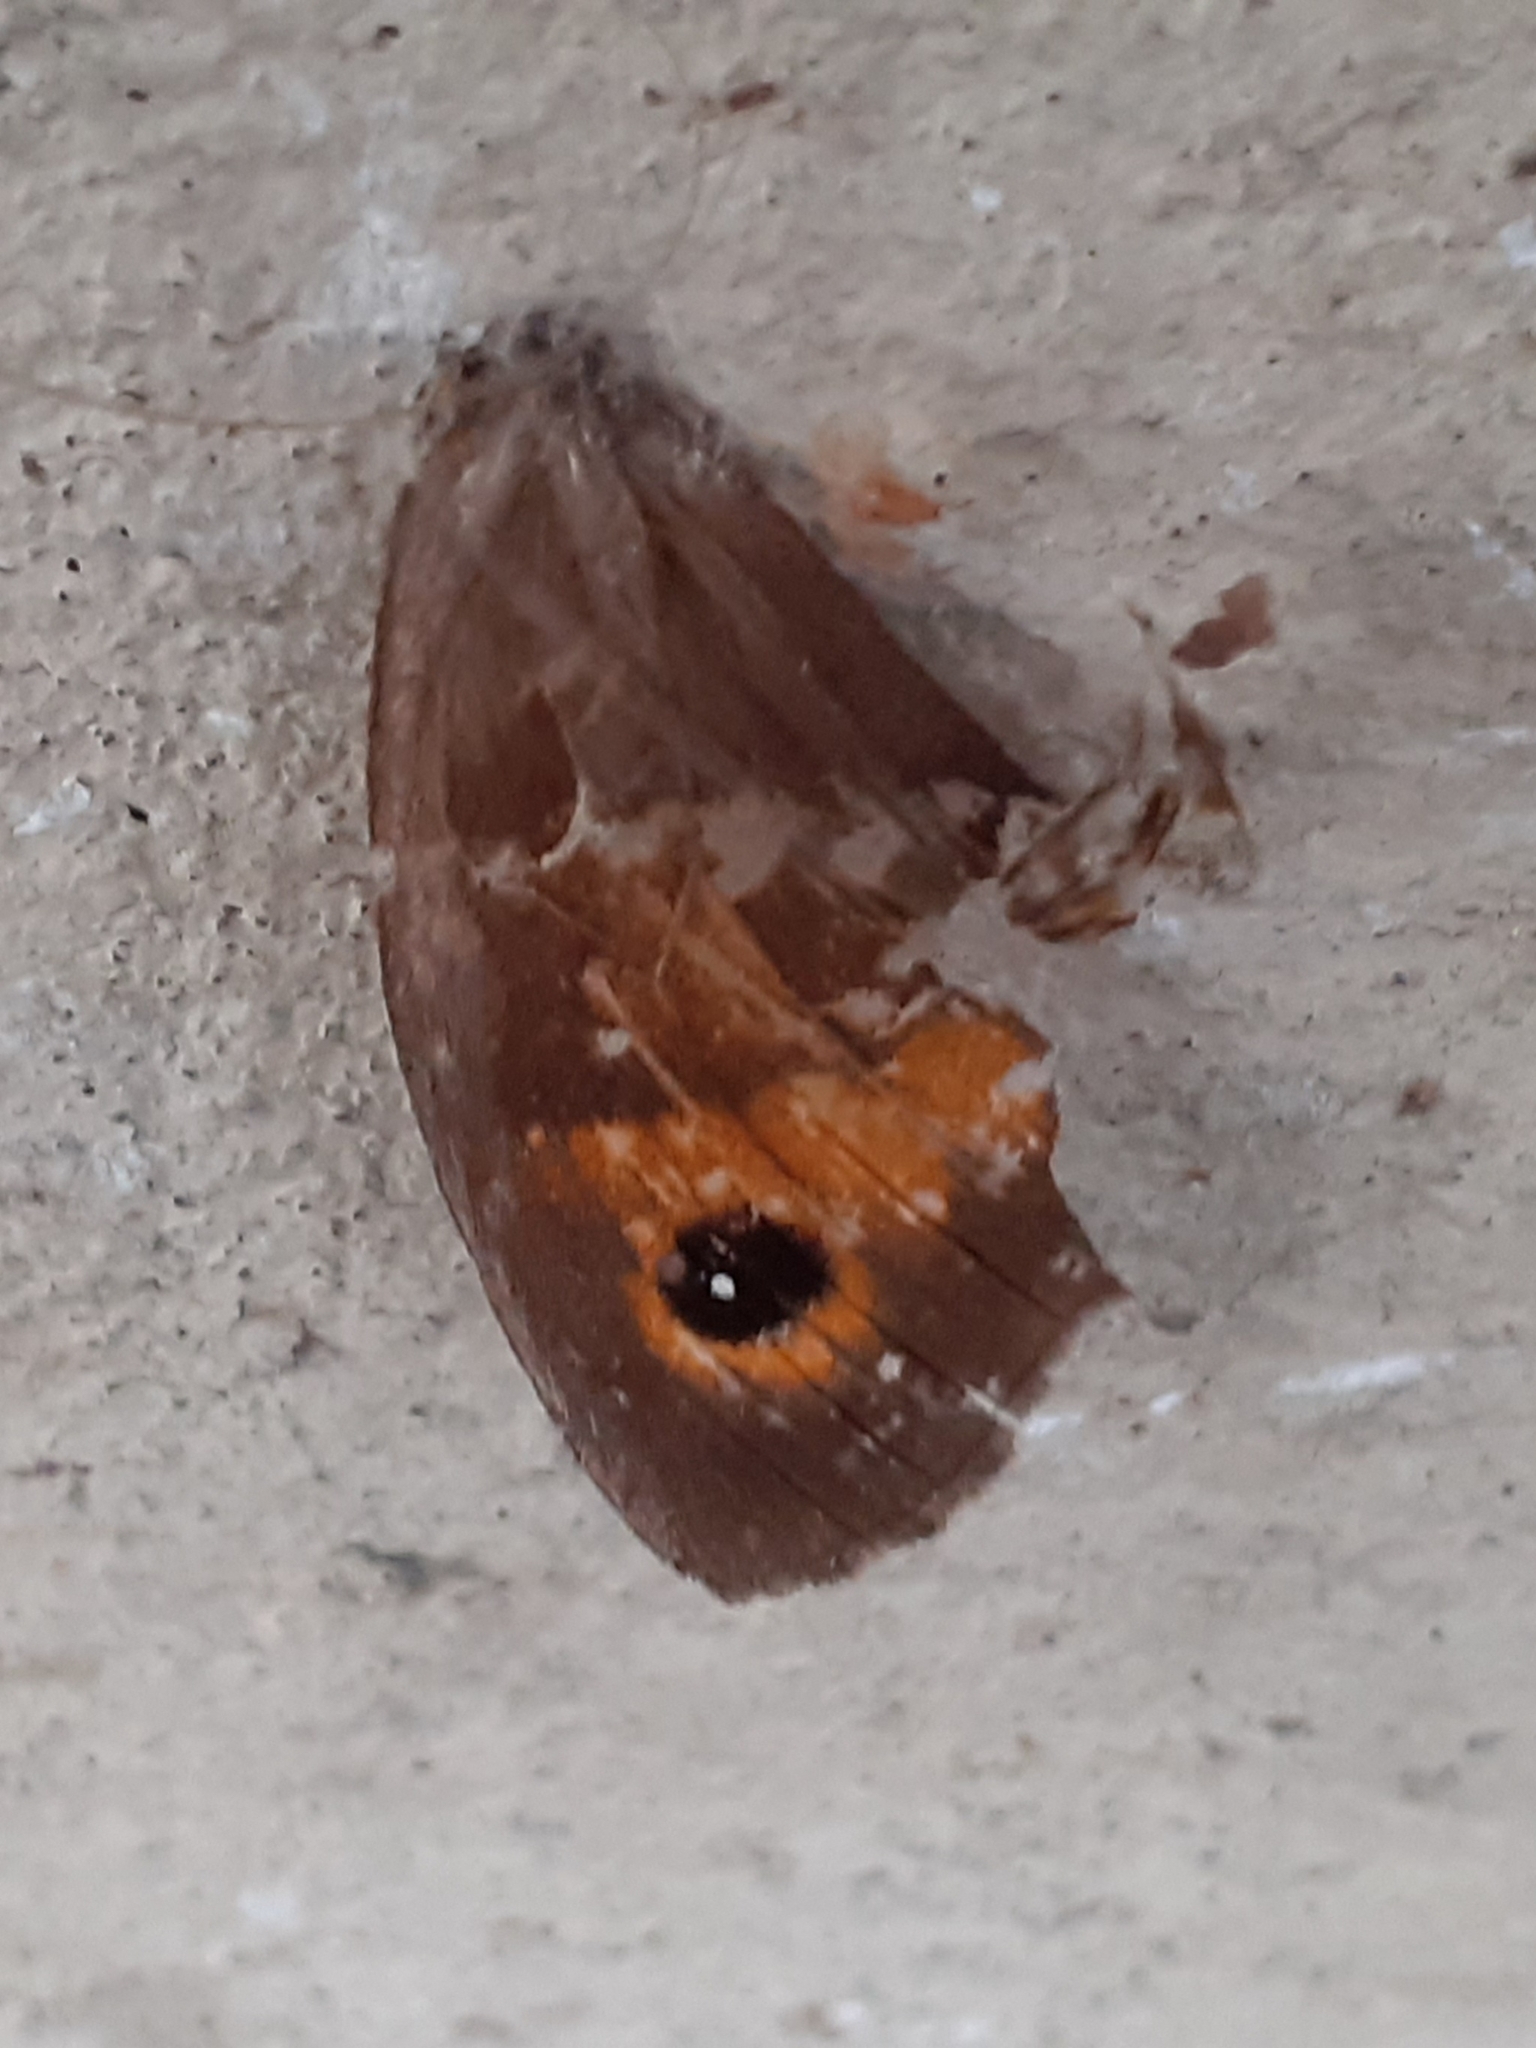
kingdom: Animalia
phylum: Arthropoda
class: Insecta
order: Lepidoptera
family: Nymphalidae
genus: Maniola
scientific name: Maniola jurtina
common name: Meadow brown
